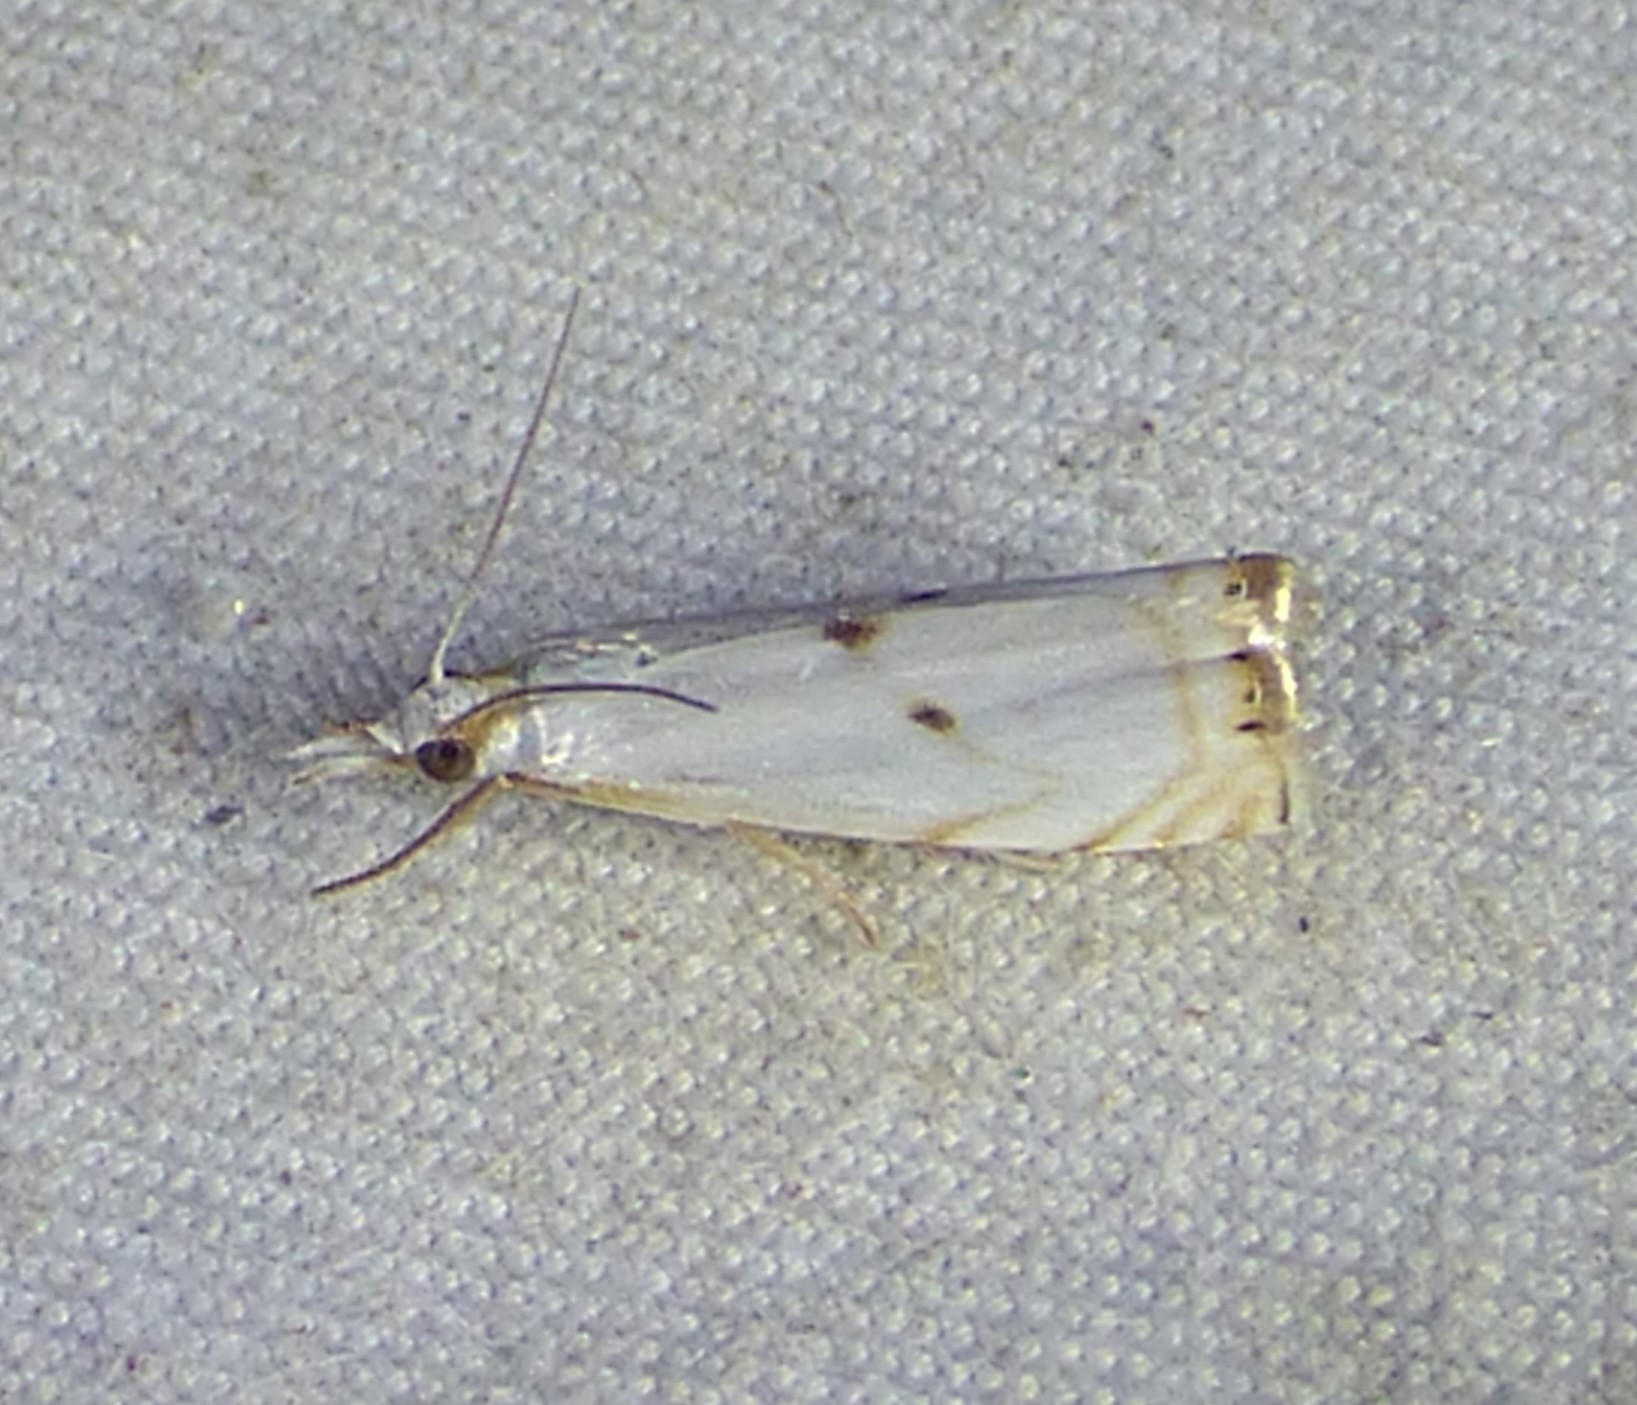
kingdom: Animalia
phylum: Arthropoda
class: Insecta
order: Lepidoptera
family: Crambidae
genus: Microcrambus
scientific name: Microcrambus biguttellus
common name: Gold-stripe grass-veneer moth
